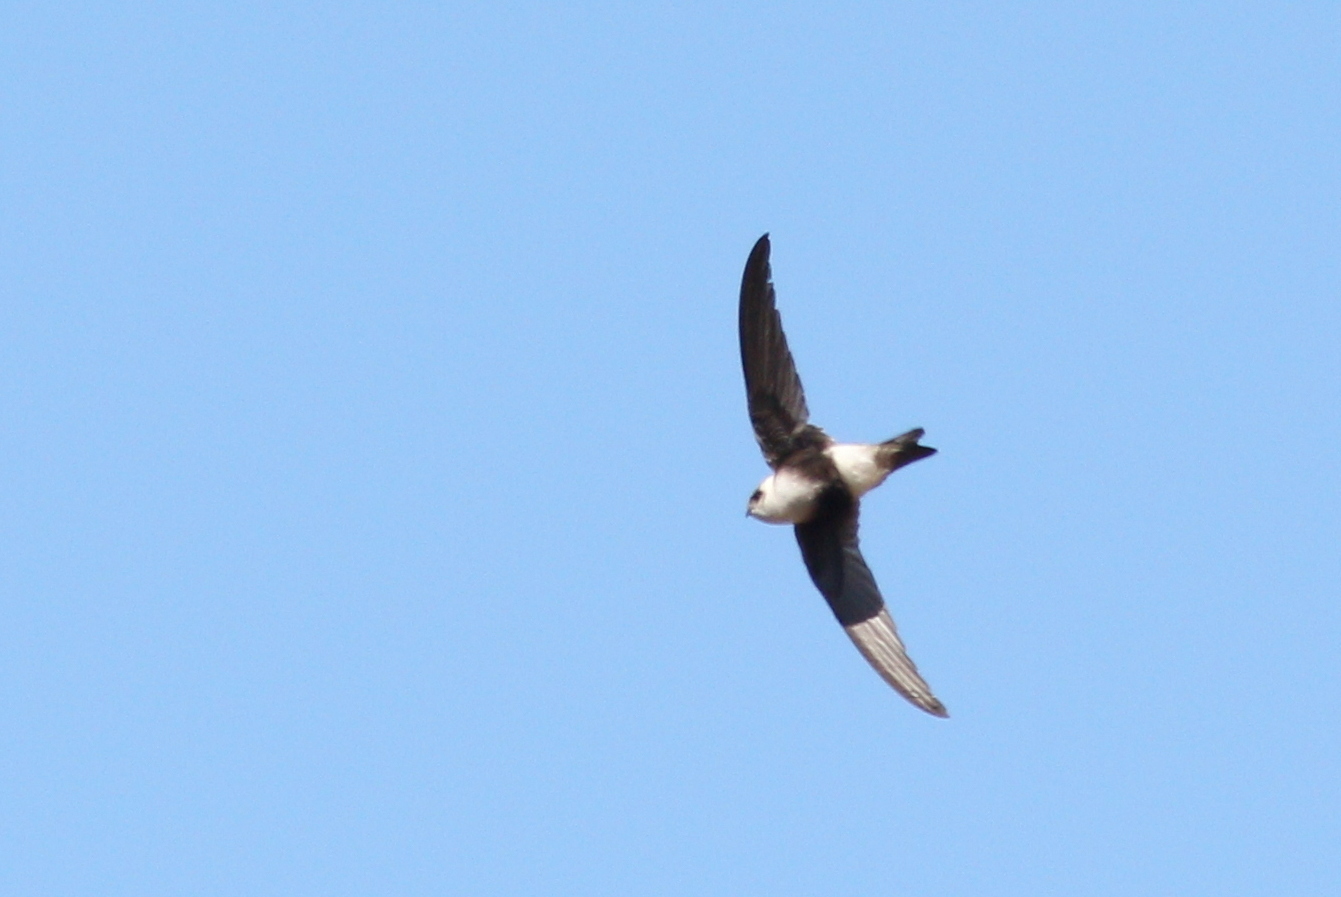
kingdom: Animalia
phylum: Chordata
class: Aves
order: Apodiformes
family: Apodidae
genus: Aeronautes
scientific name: Aeronautes andecolus
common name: Andean swift
